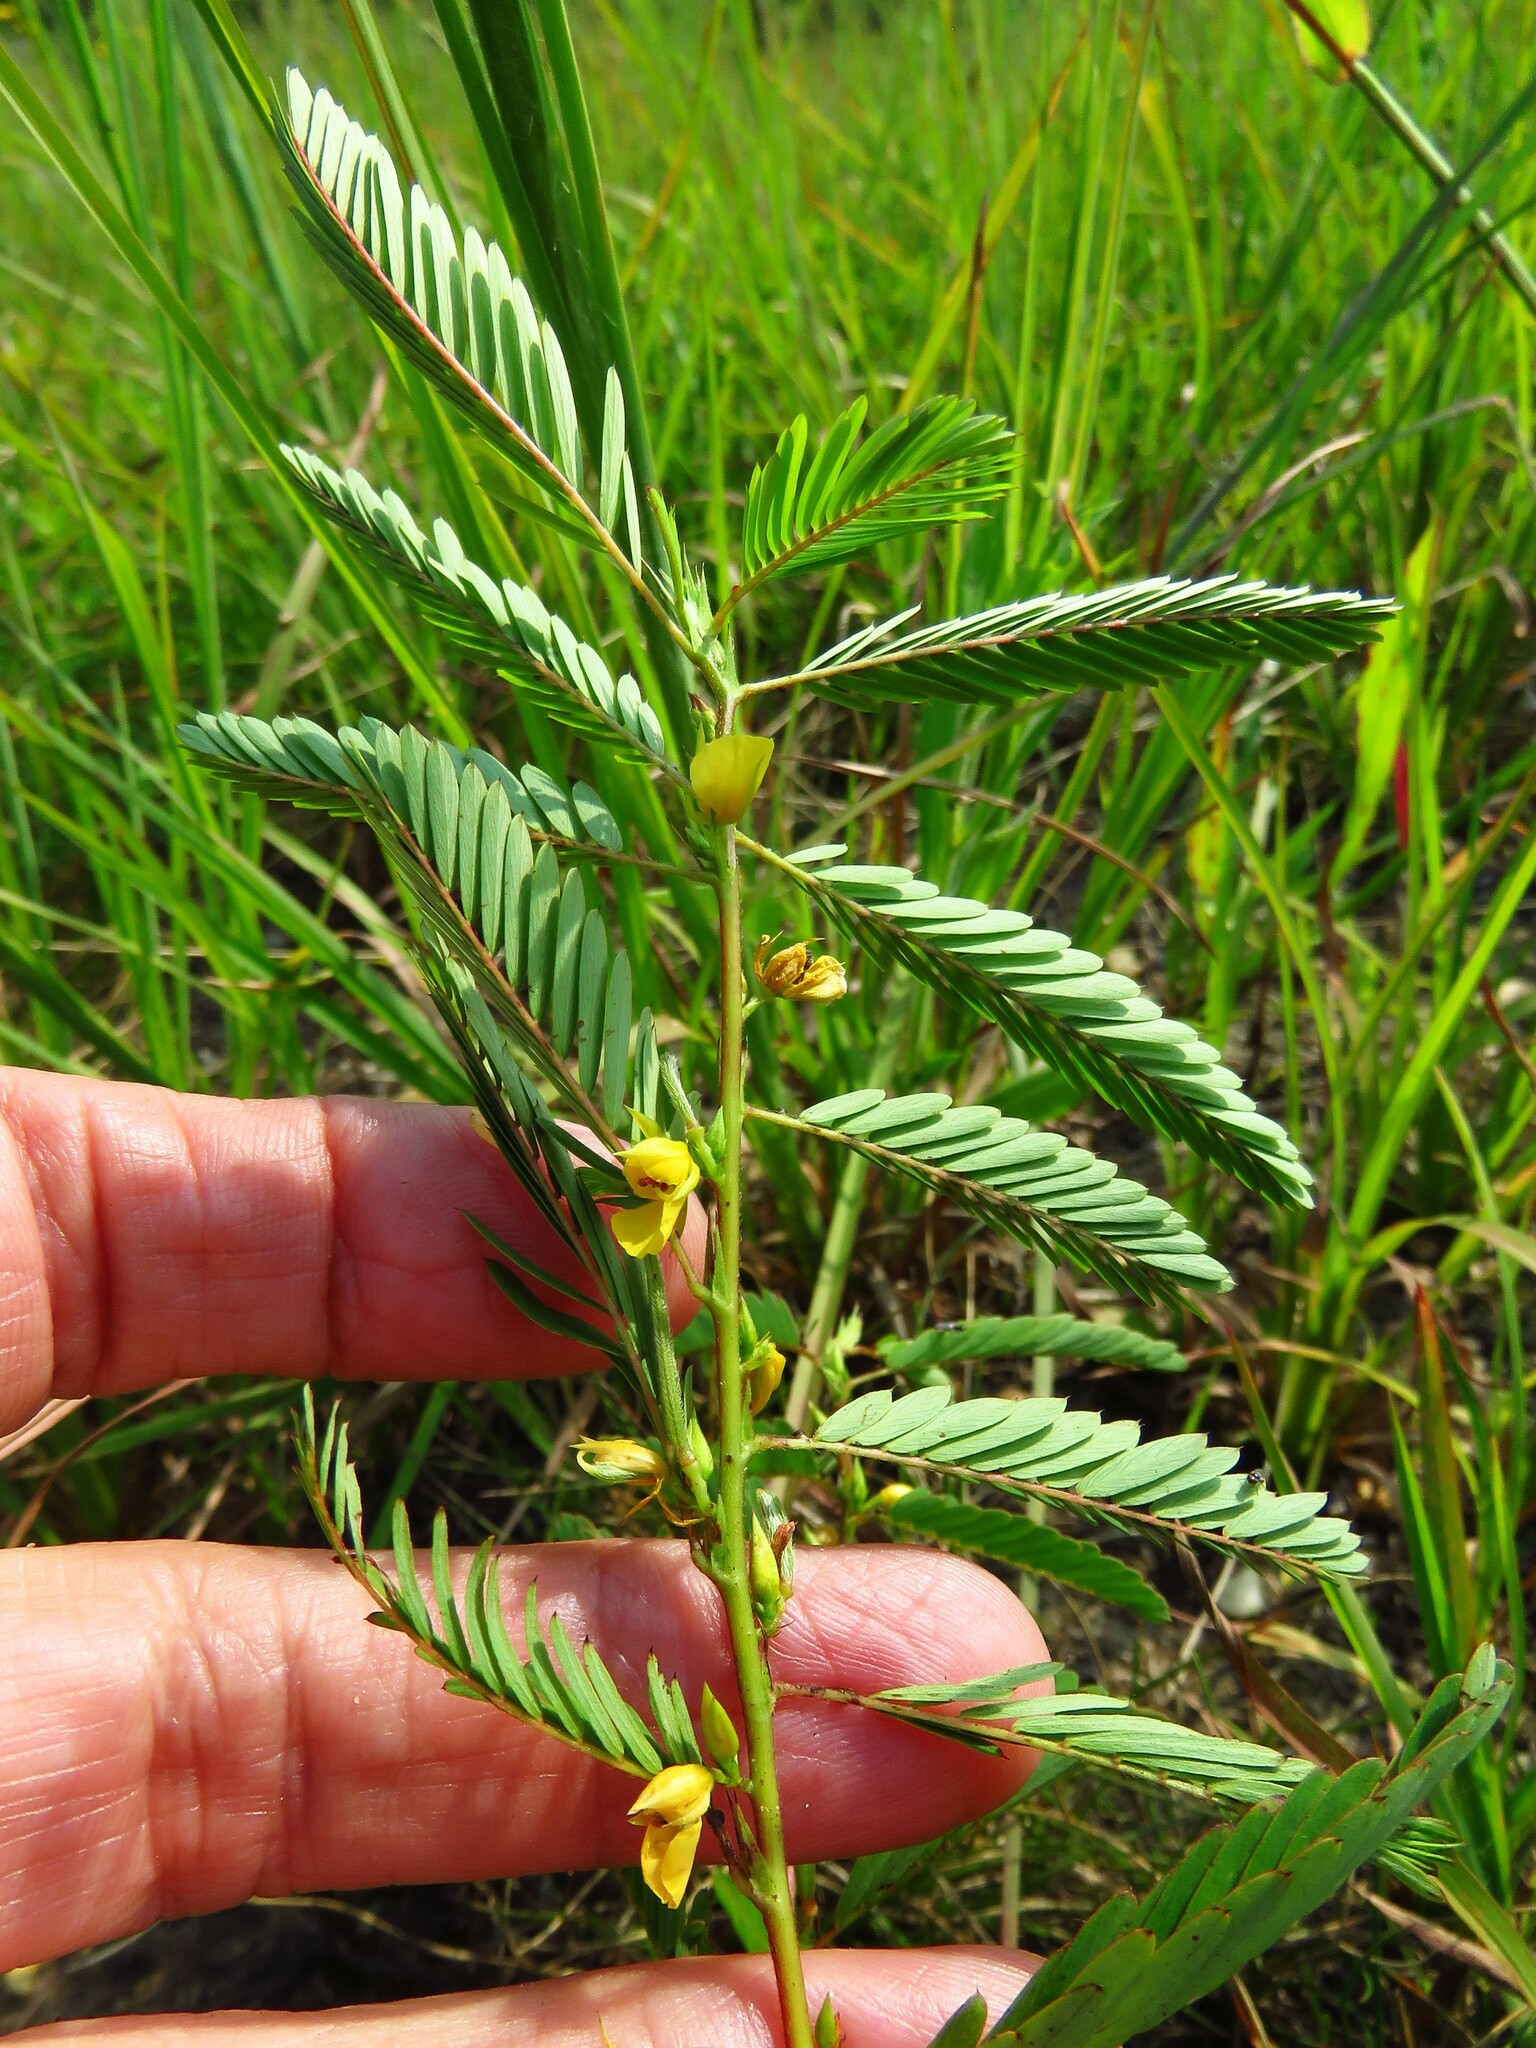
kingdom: Plantae
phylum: Tracheophyta
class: Magnoliopsida
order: Fabales
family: Fabaceae
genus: Chamaecrista
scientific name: Chamaecrista fasciculata
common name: Golden cassia
